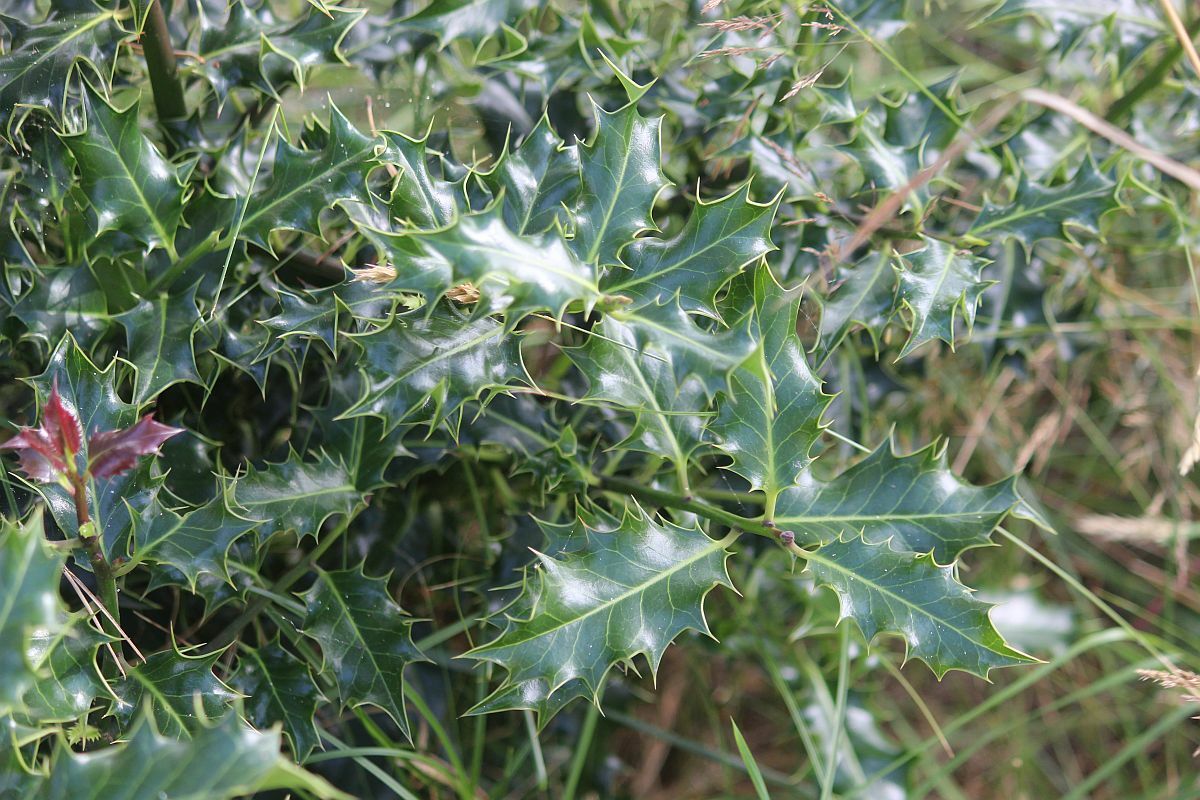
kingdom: Plantae
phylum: Tracheophyta
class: Magnoliopsida
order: Aquifoliales
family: Aquifoliaceae
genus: Ilex
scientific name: Ilex aquifolium
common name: English holly
